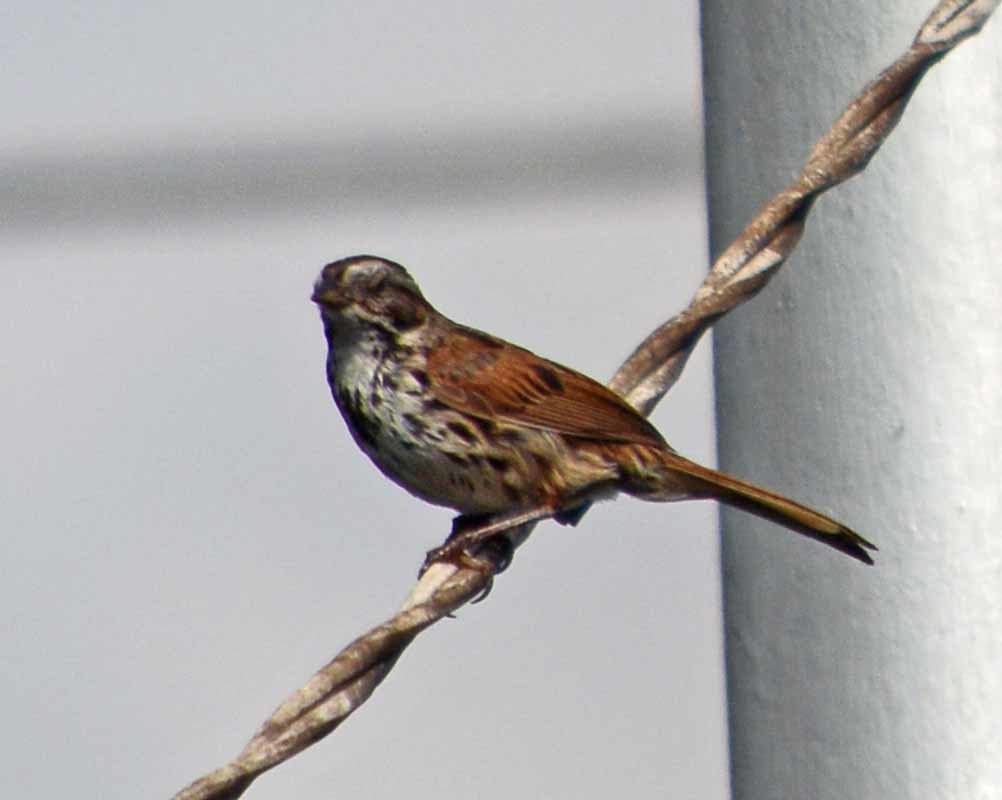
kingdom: Animalia
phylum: Chordata
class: Aves
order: Passeriformes
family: Passerellidae
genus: Melospiza
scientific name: Melospiza melodia
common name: Song sparrow
